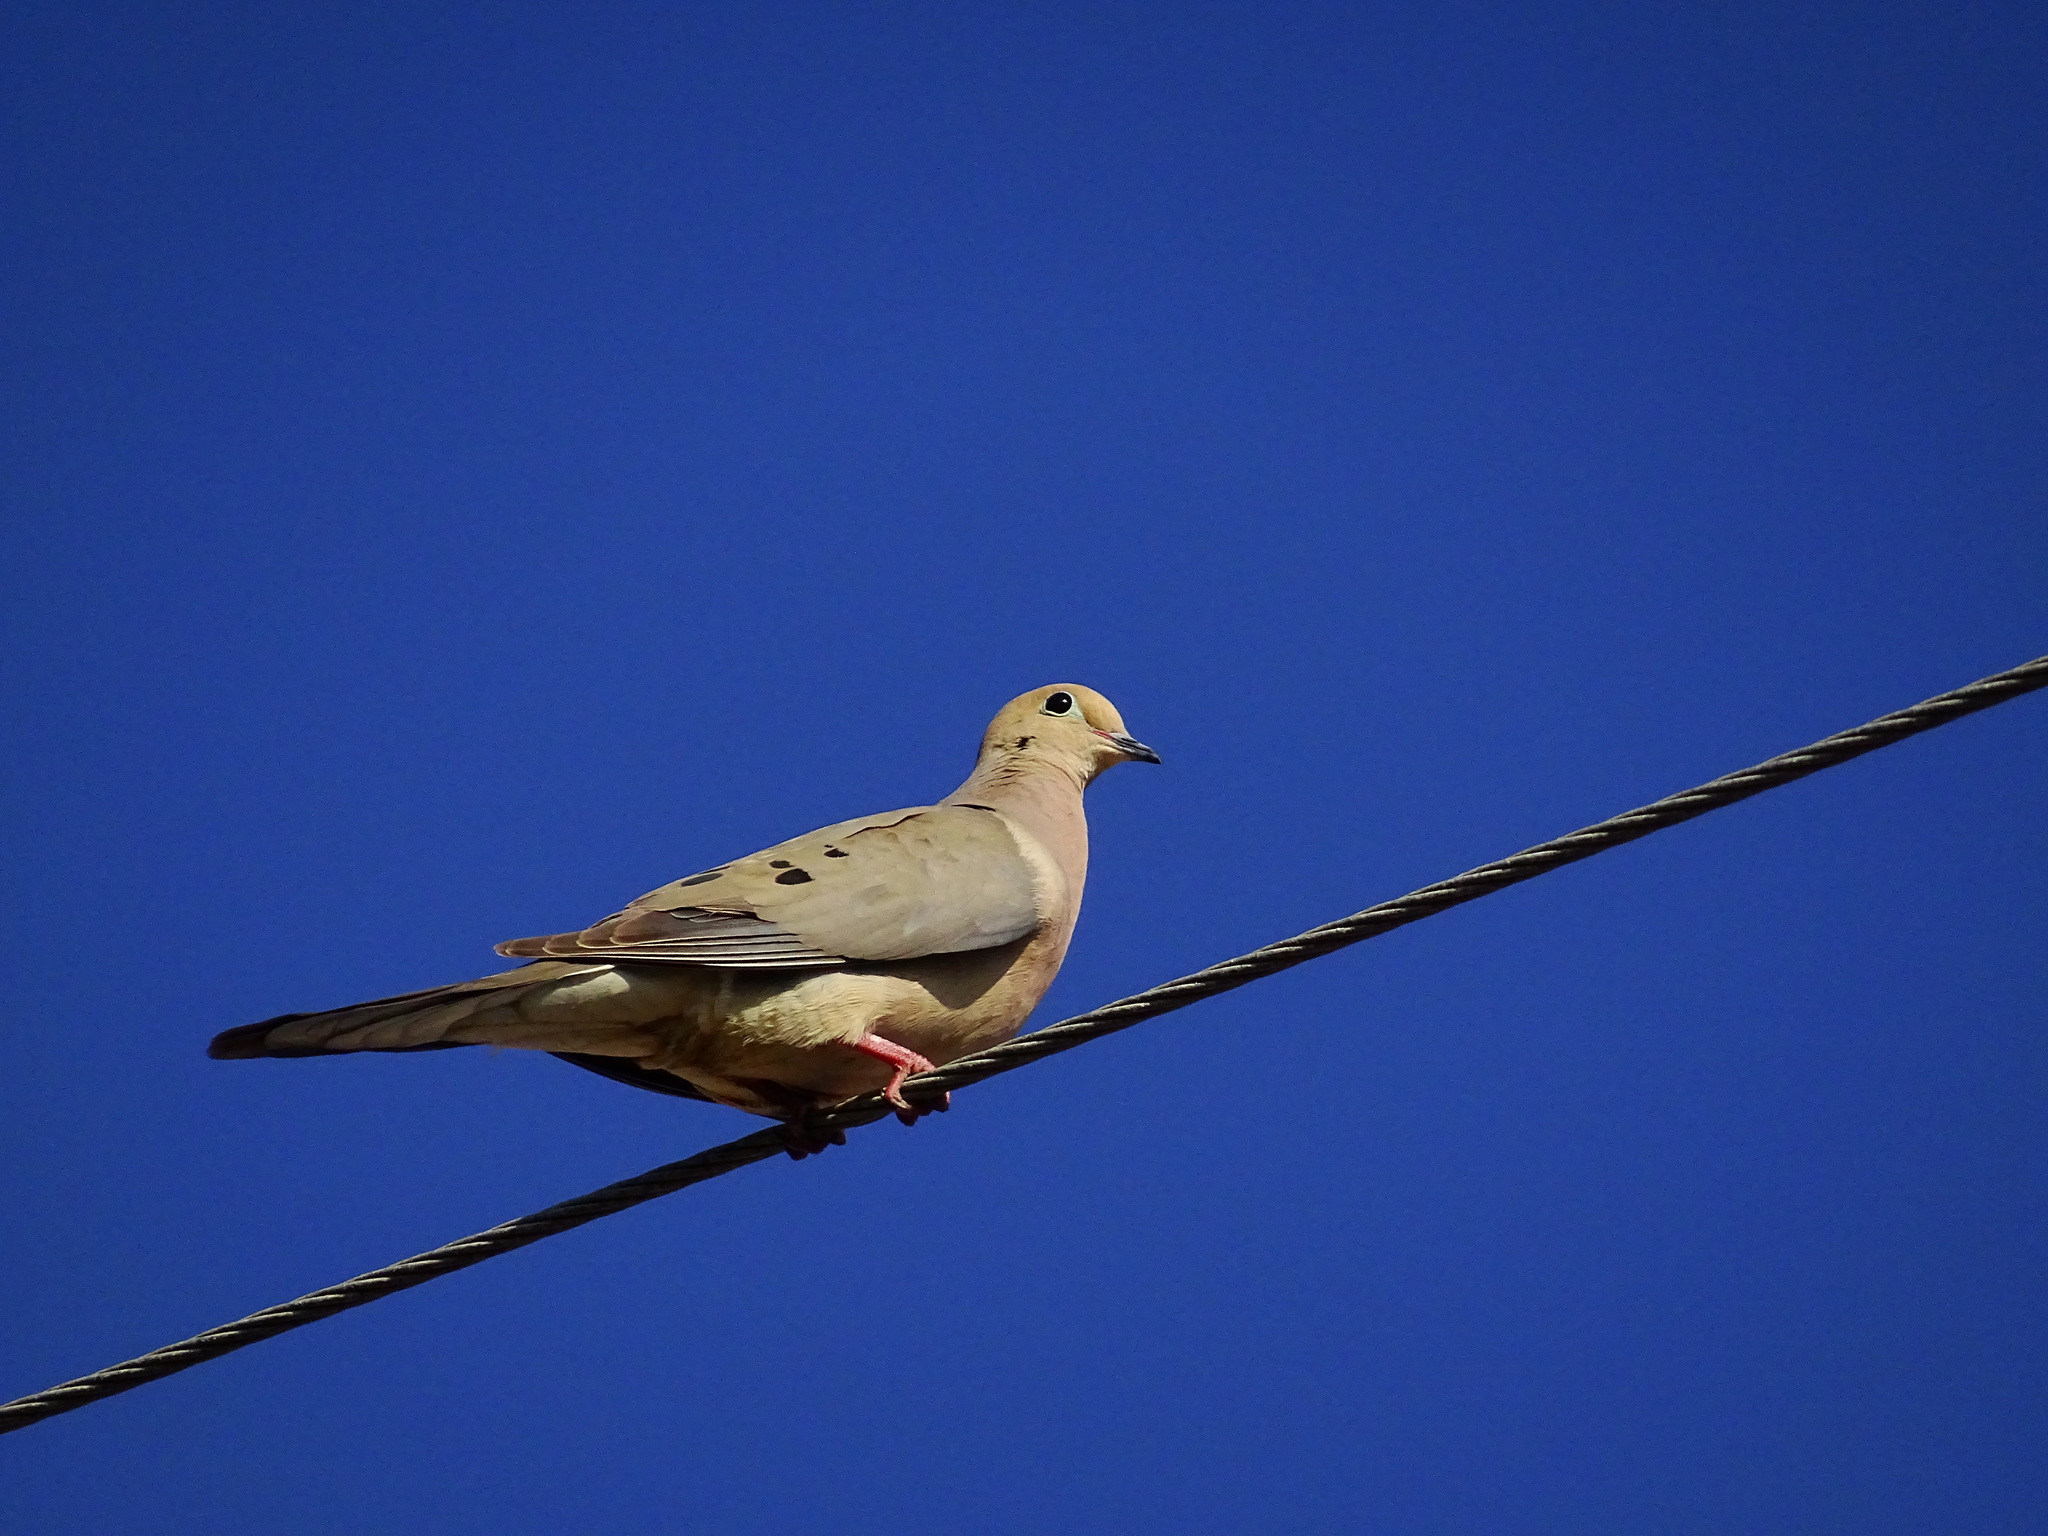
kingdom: Animalia
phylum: Chordata
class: Aves
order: Columbiformes
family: Columbidae
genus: Zenaida
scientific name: Zenaida macroura
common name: Mourning dove
